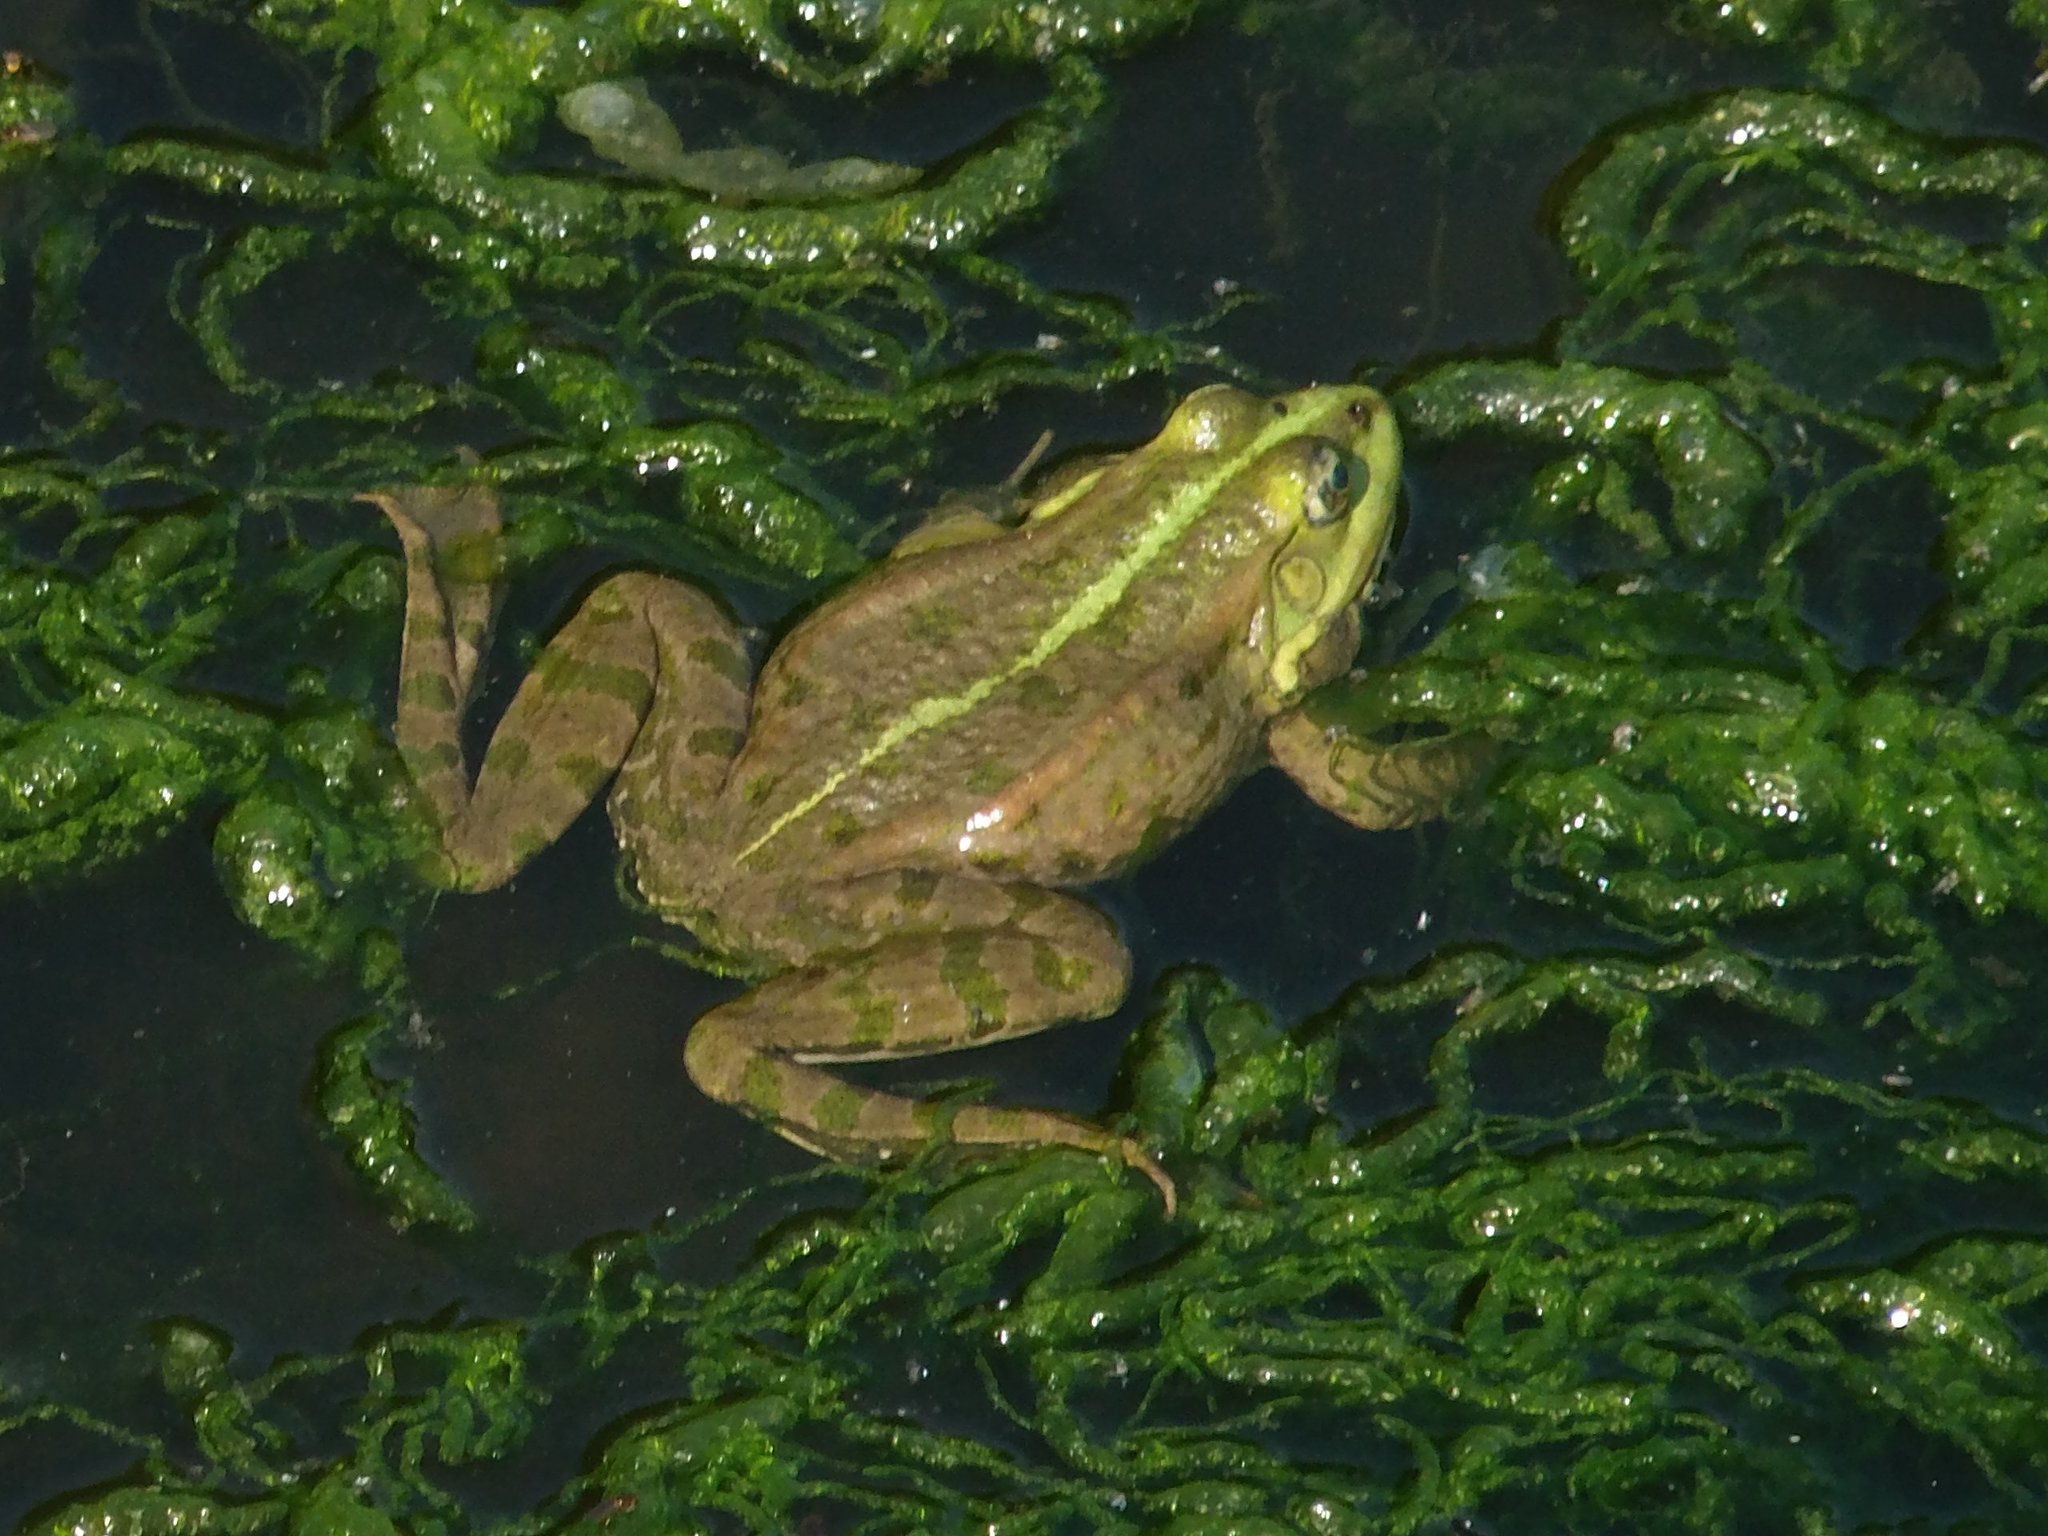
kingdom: Animalia
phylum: Chordata
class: Amphibia
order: Anura
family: Ranidae
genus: Pelophylax
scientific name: Pelophylax ridibundus
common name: Marsh frog
